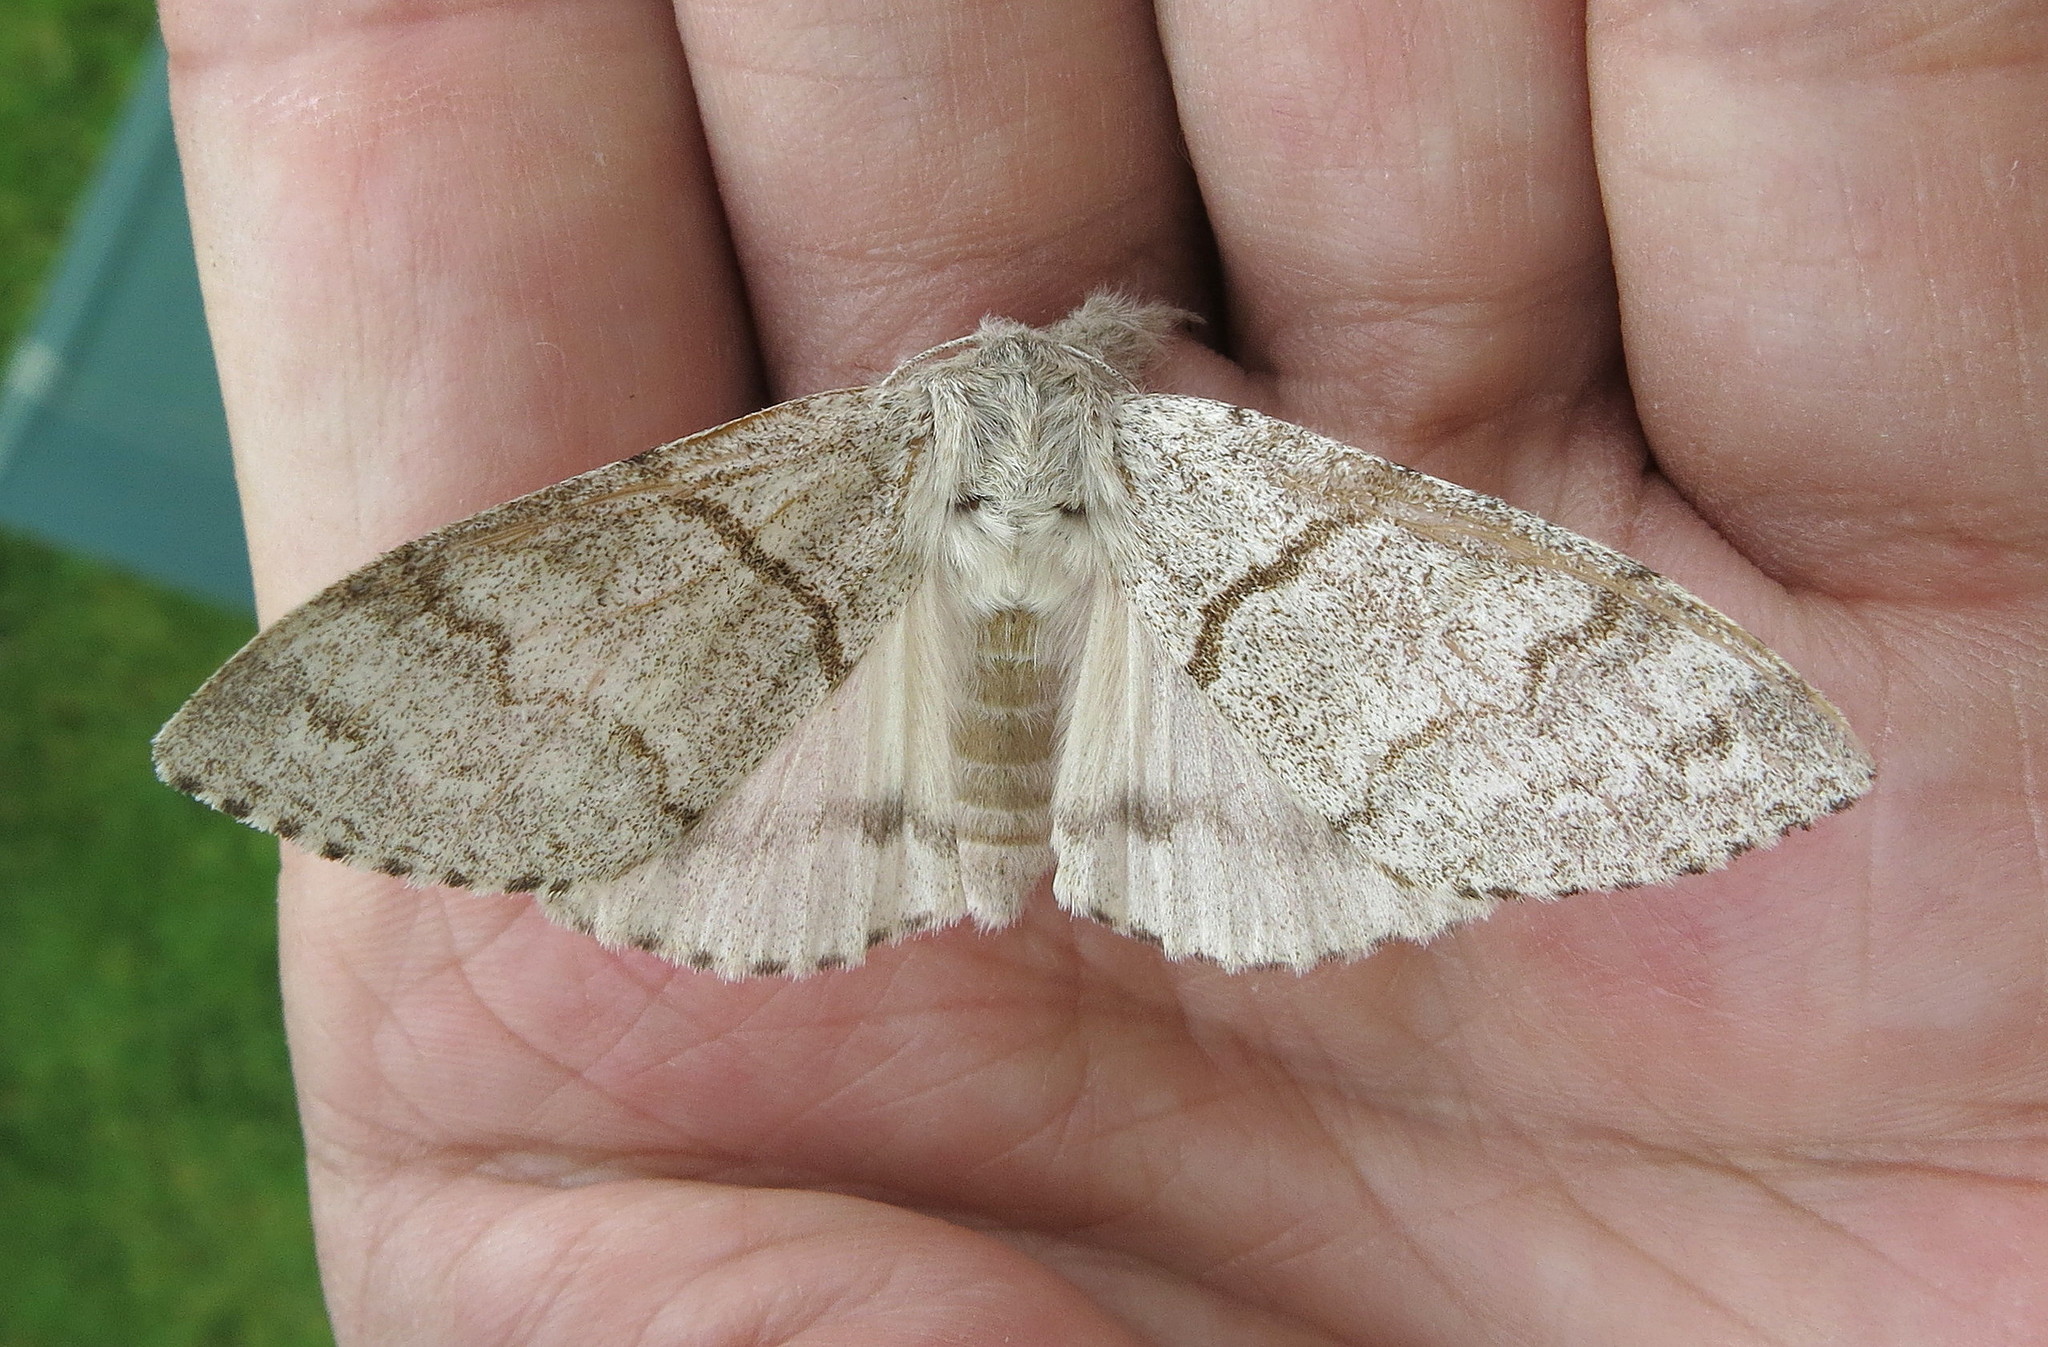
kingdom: Animalia
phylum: Arthropoda
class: Insecta
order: Lepidoptera
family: Erebidae
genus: Calliteara
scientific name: Calliteara pudibunda
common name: Pale tussock
